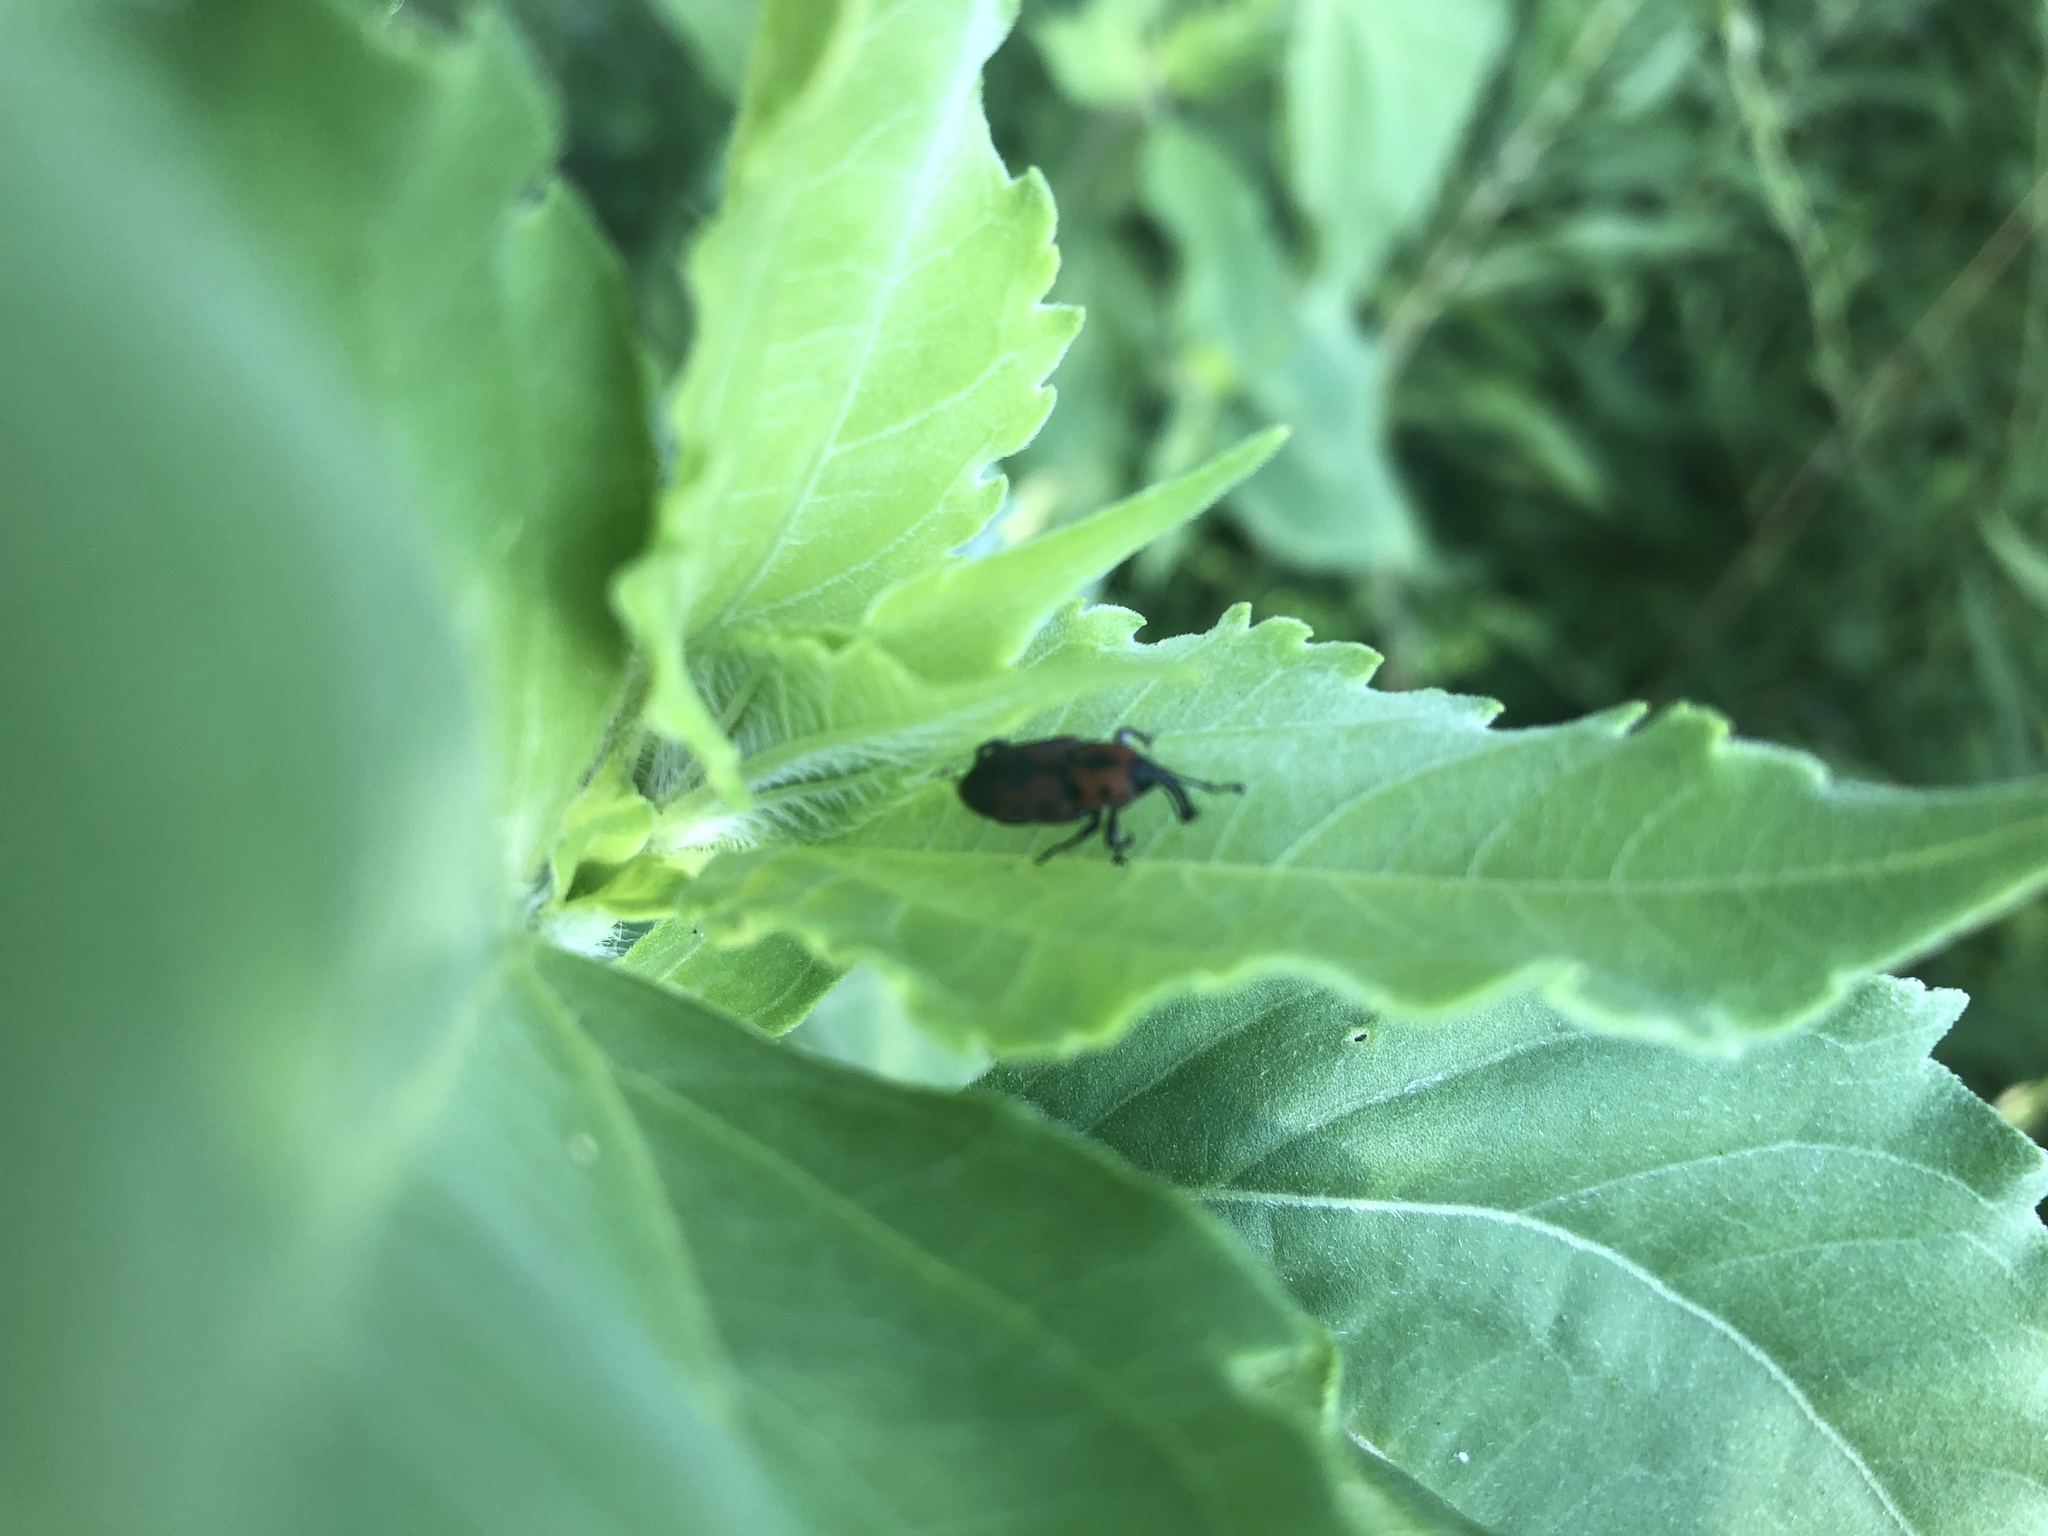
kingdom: Animalia
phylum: Arthropoda
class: Insecta
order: Coleoptera
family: Dryophthoridae
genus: Rhodobaenus
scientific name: Rhodobaenus quinquepunctatus
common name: Cocklebur weevil
